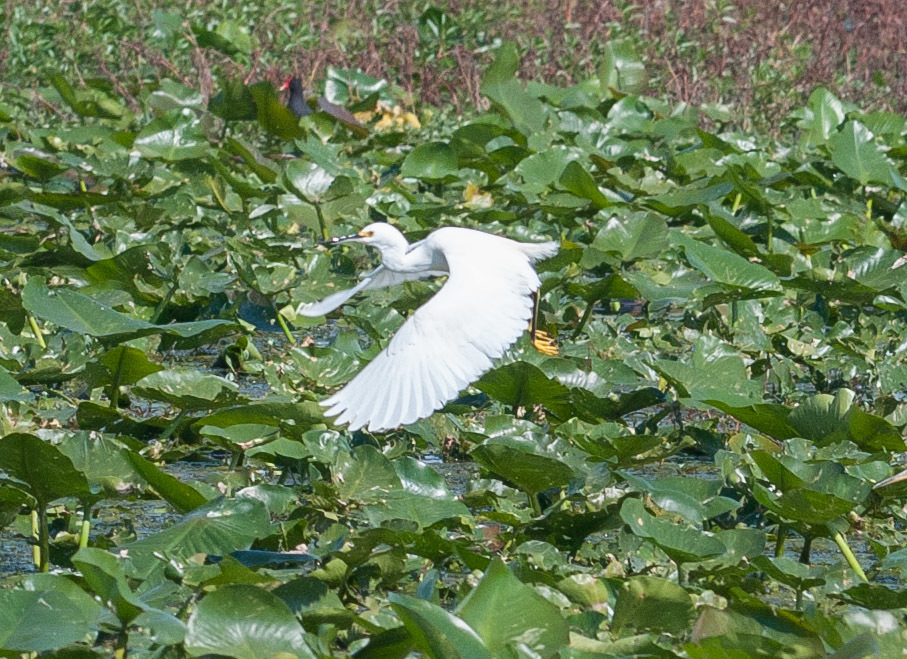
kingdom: Animalia
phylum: Chordata
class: Aves
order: Pelecaniformes
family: Ardeidae
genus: Egretta
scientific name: Egretta thula
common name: Snowy egret
